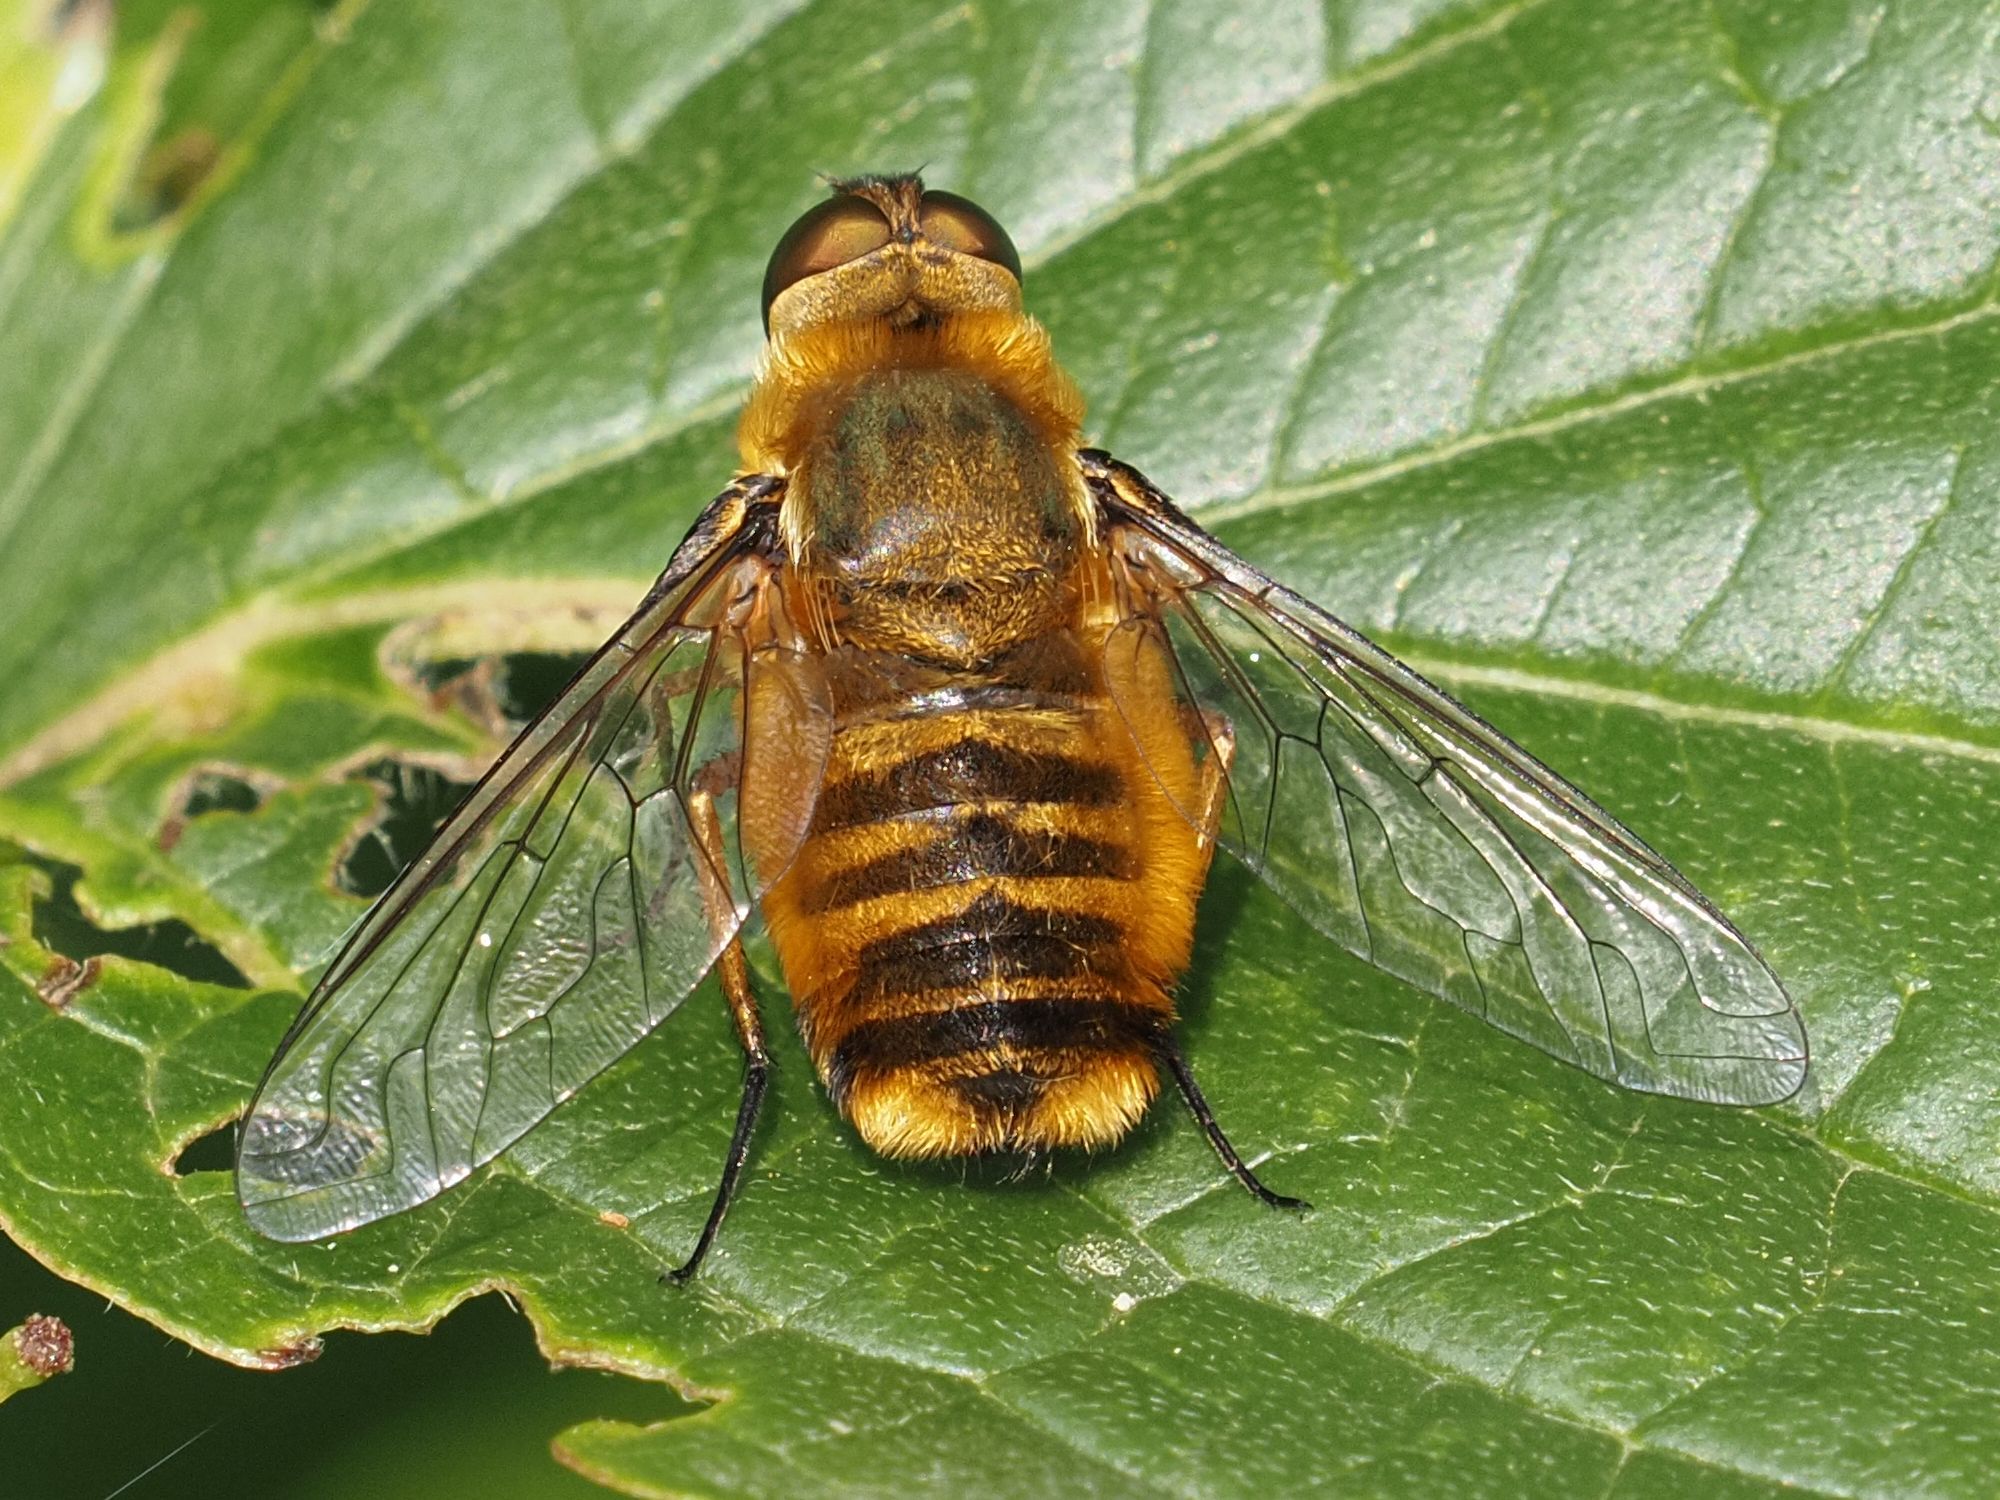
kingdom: Animalia
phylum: Arthropoda
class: Insecta
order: Diptera
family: Bombyliidae
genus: Villa
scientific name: Villa hottentotta
